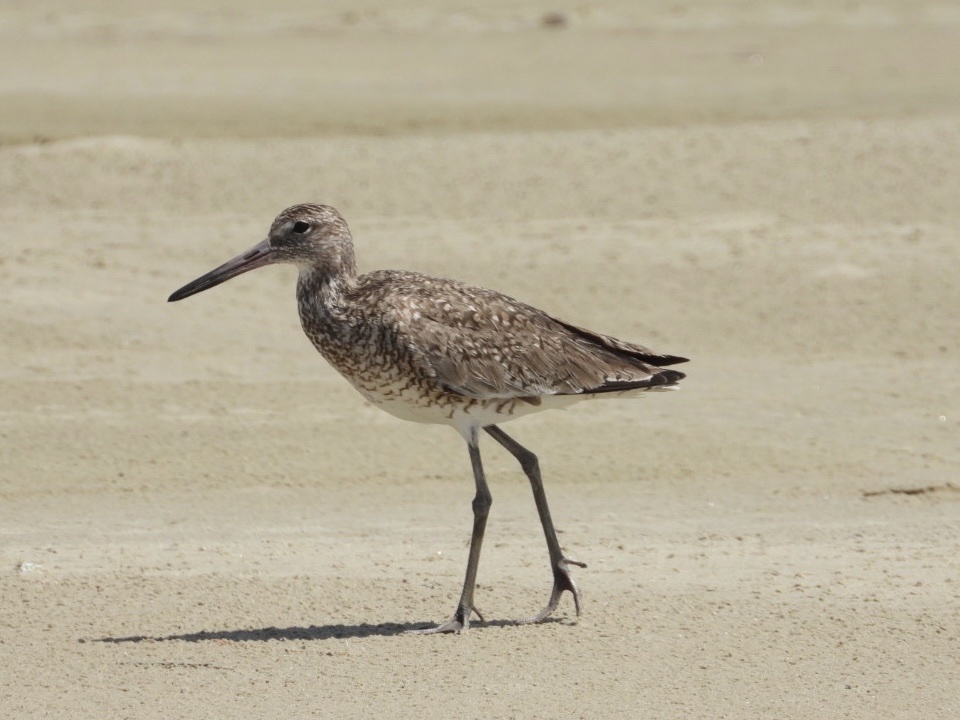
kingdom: Animalia
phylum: Chordata
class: Aves
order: Charadriiformes
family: Scolopacidae
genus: Tringa
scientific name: Tringa semipalmata
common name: Willet
